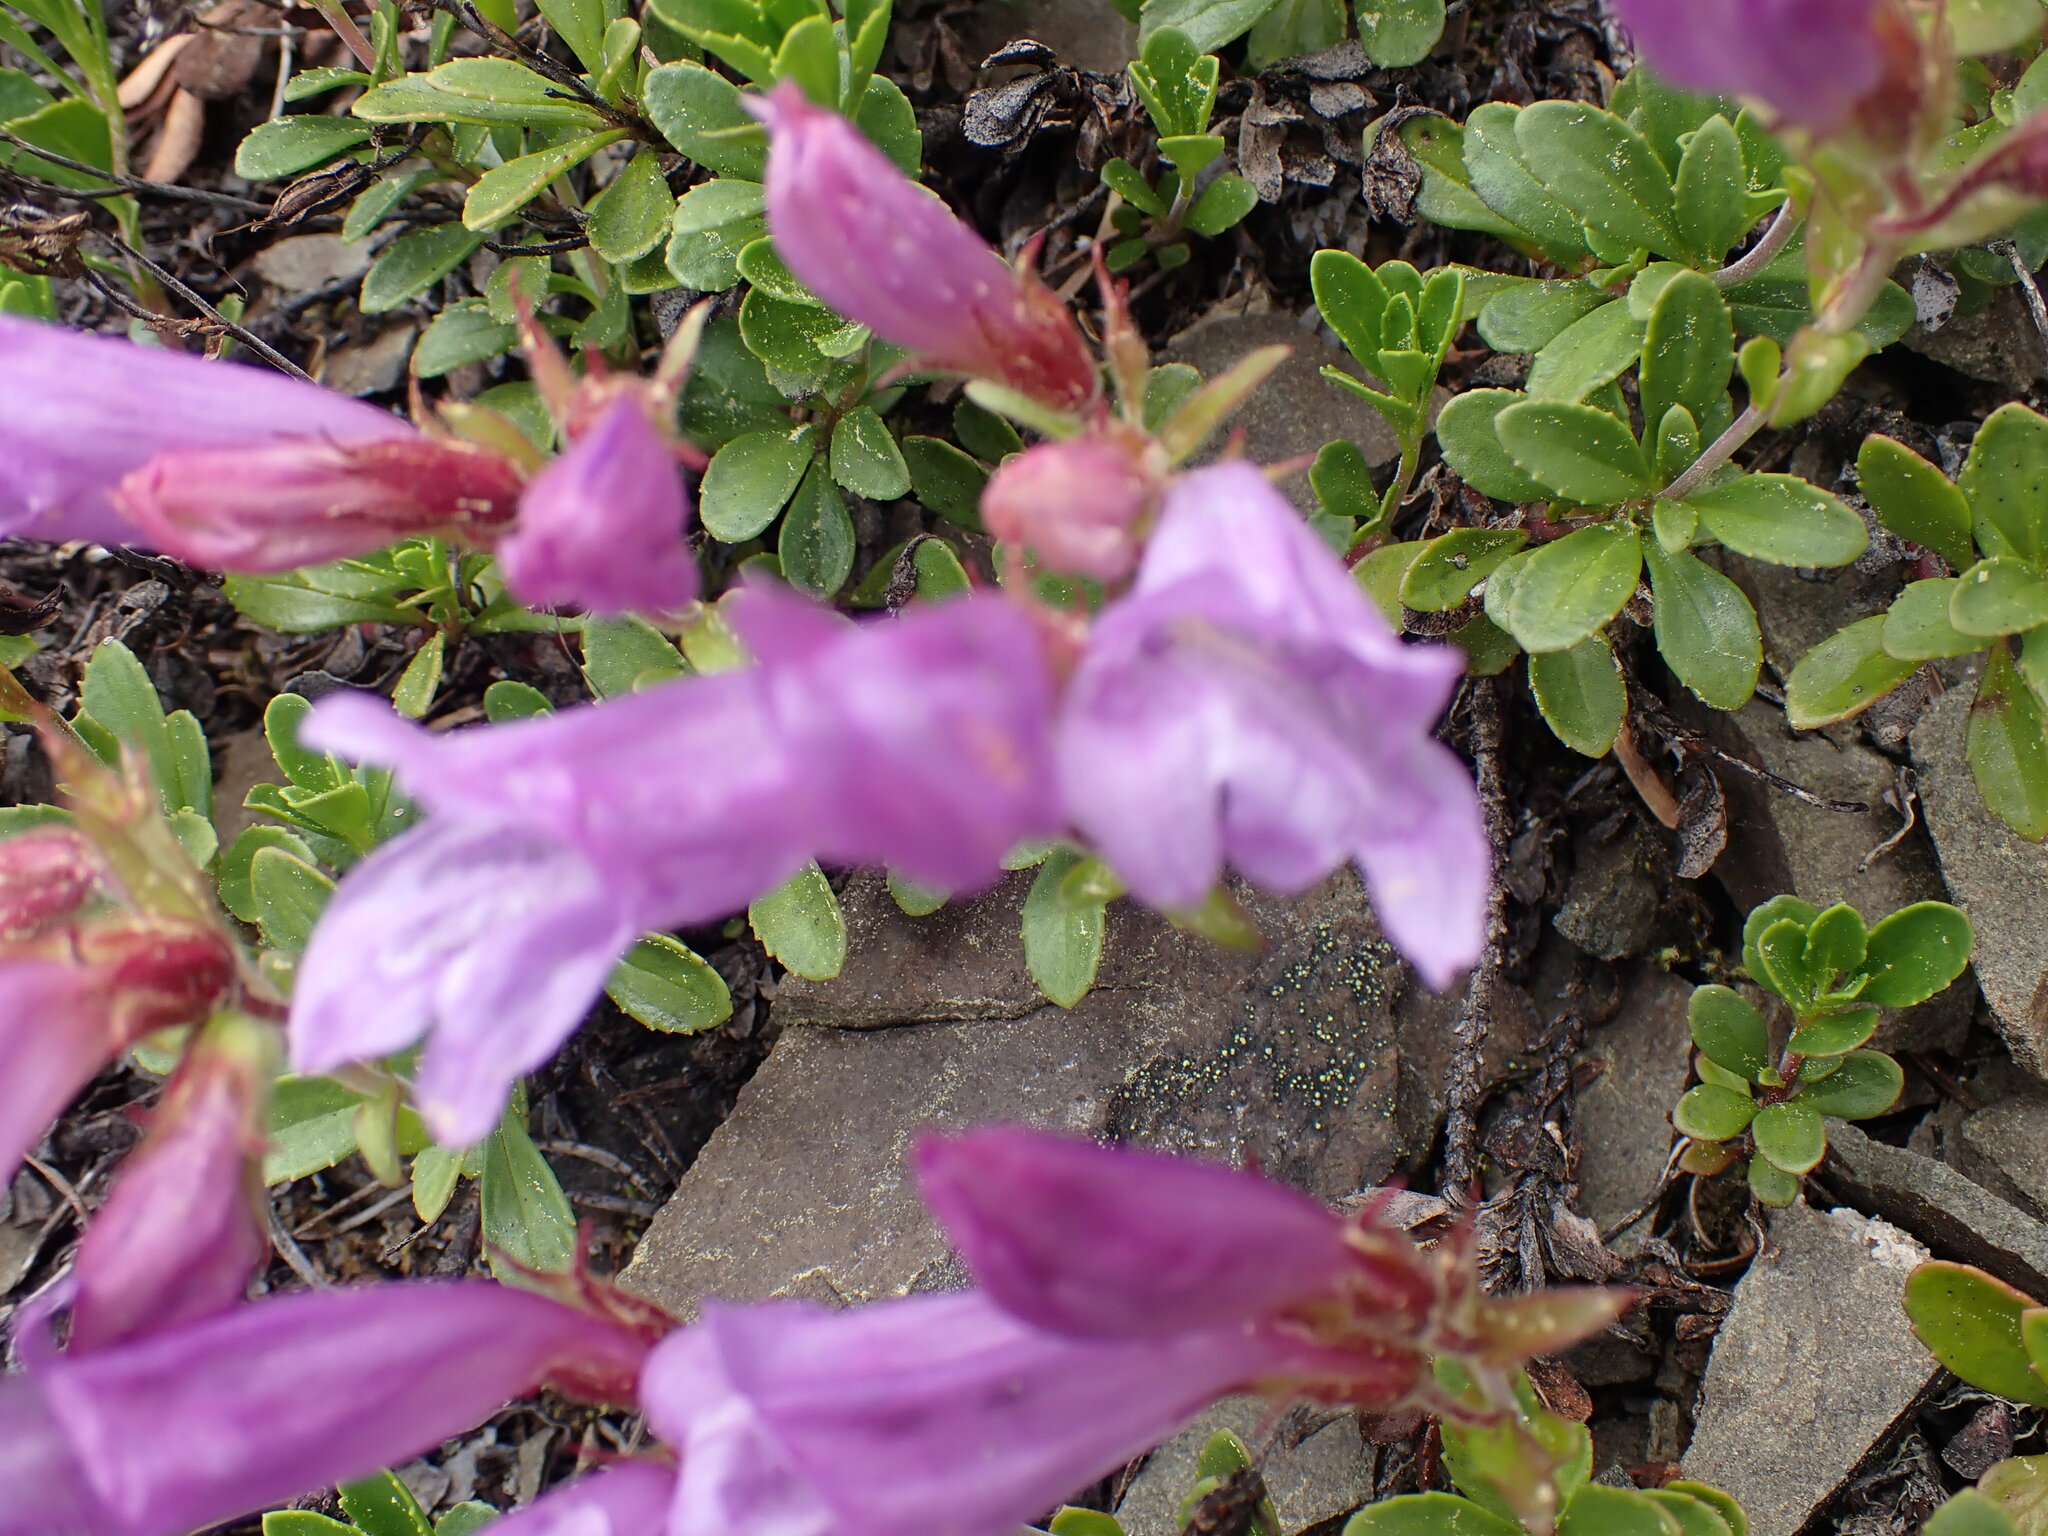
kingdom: Plantae
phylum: Tracheophyta
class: Magnoliopsida
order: Lamiales
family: Plantaginaceae
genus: Penstemon
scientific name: Penstemon davidsonii
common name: Davidson's penstemon
